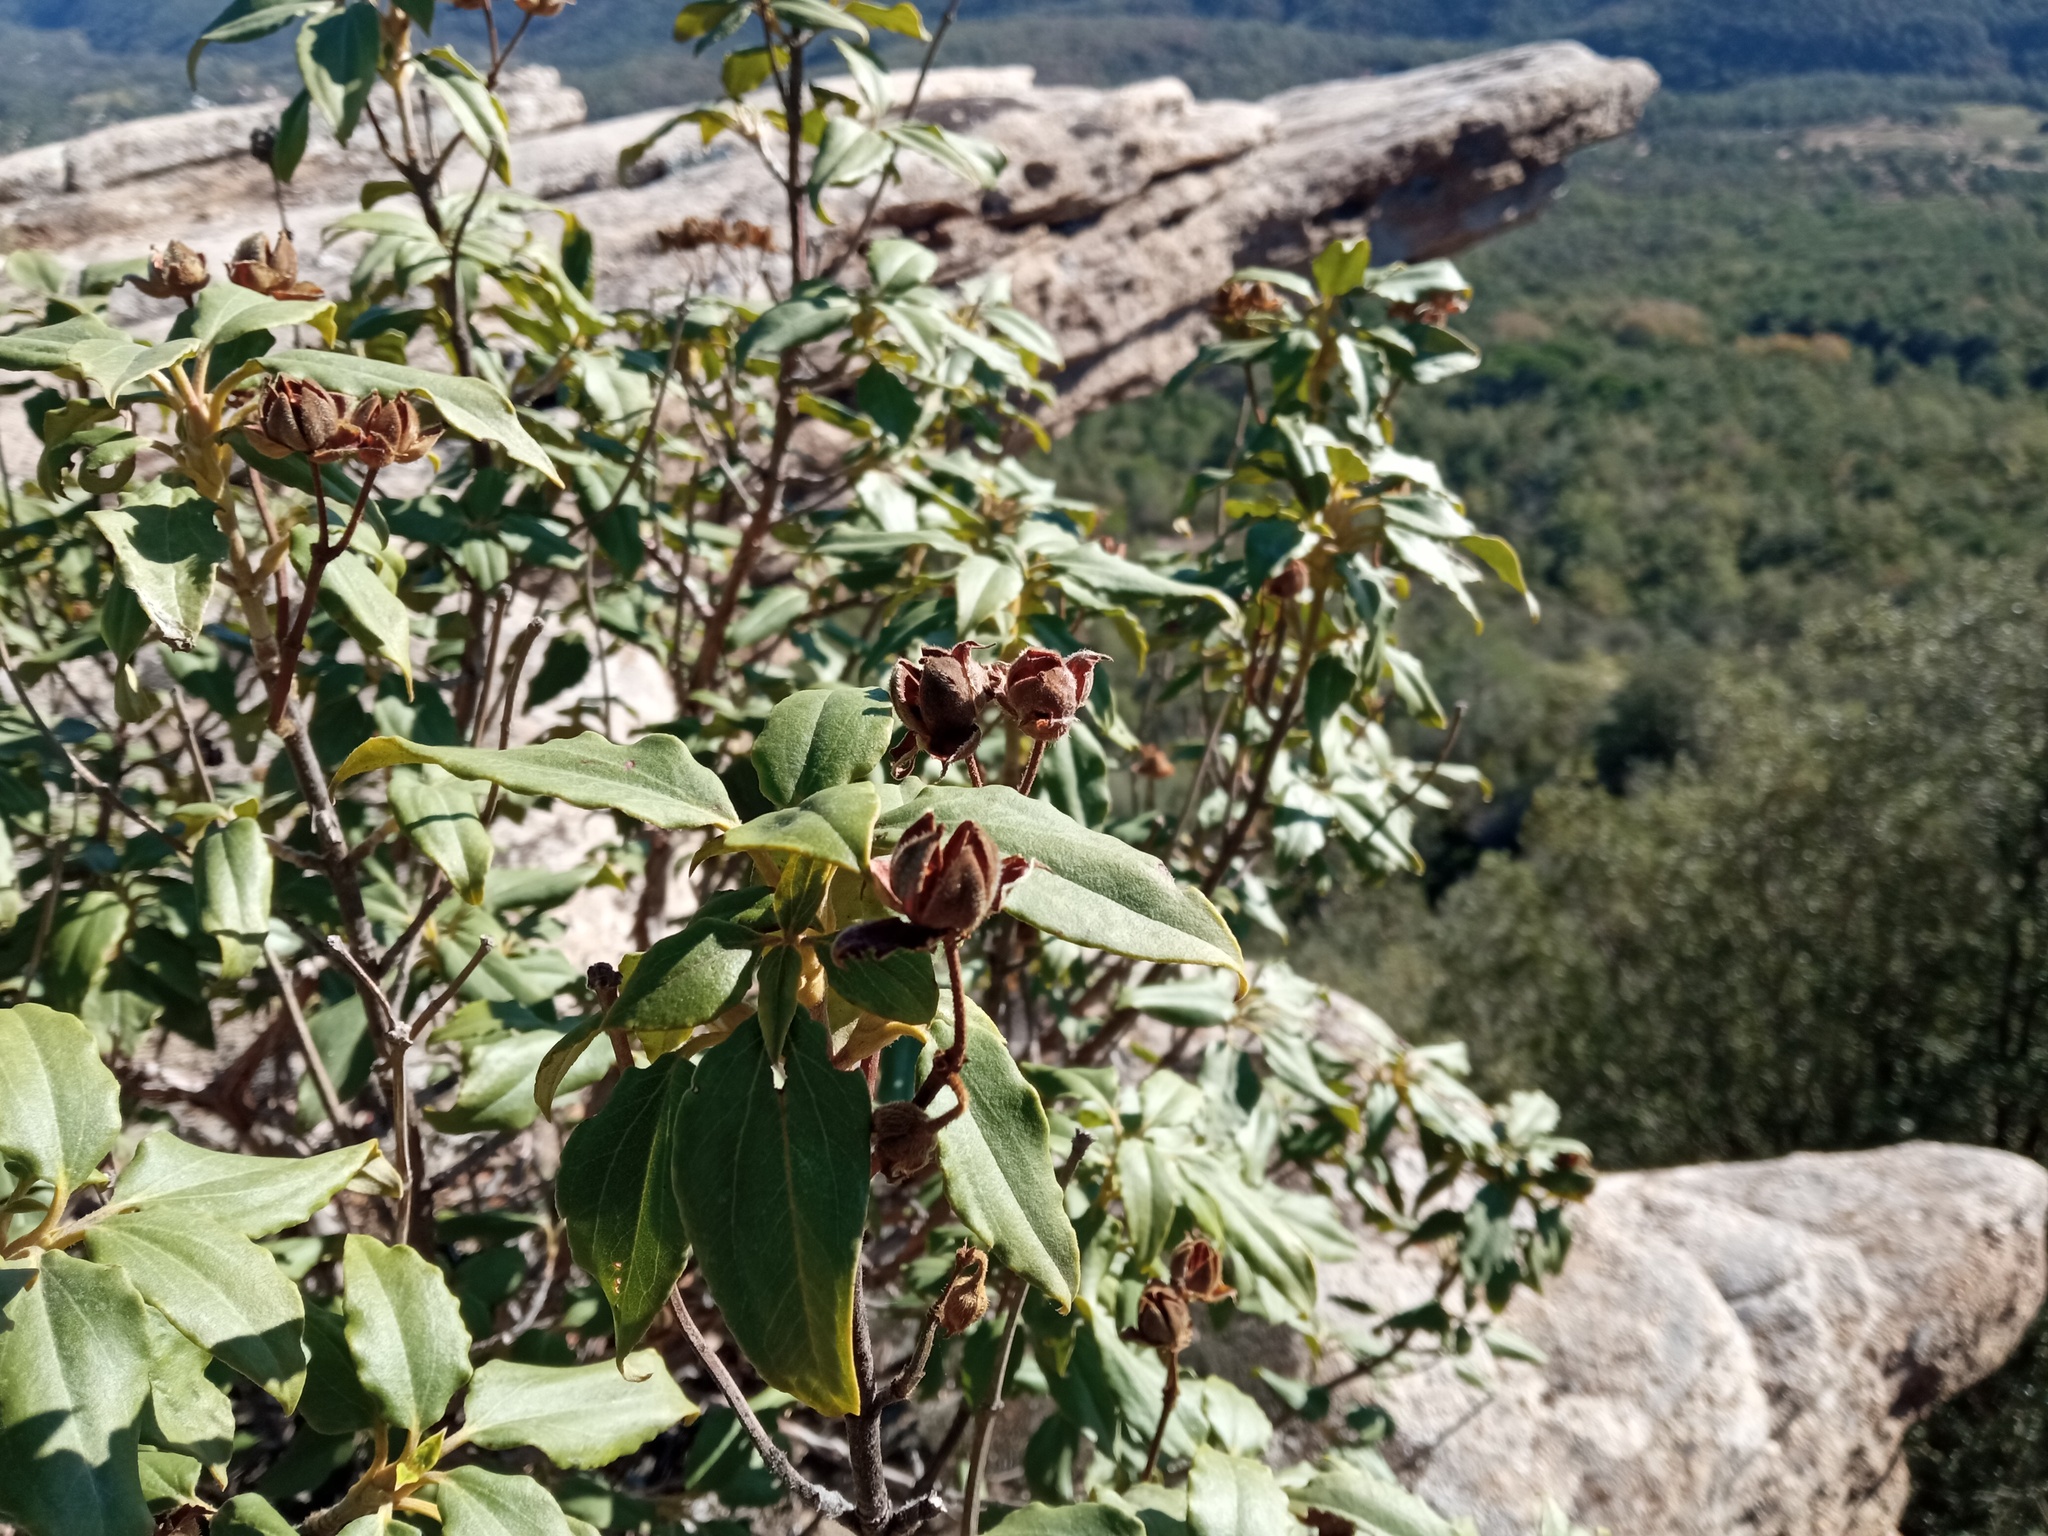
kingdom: Plantae
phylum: Tracheophyta
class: Magnoliopsida
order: Malvales
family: Cistaceae
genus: Cistus
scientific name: Cistus laurifolius
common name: Laurel-leaved cistus
